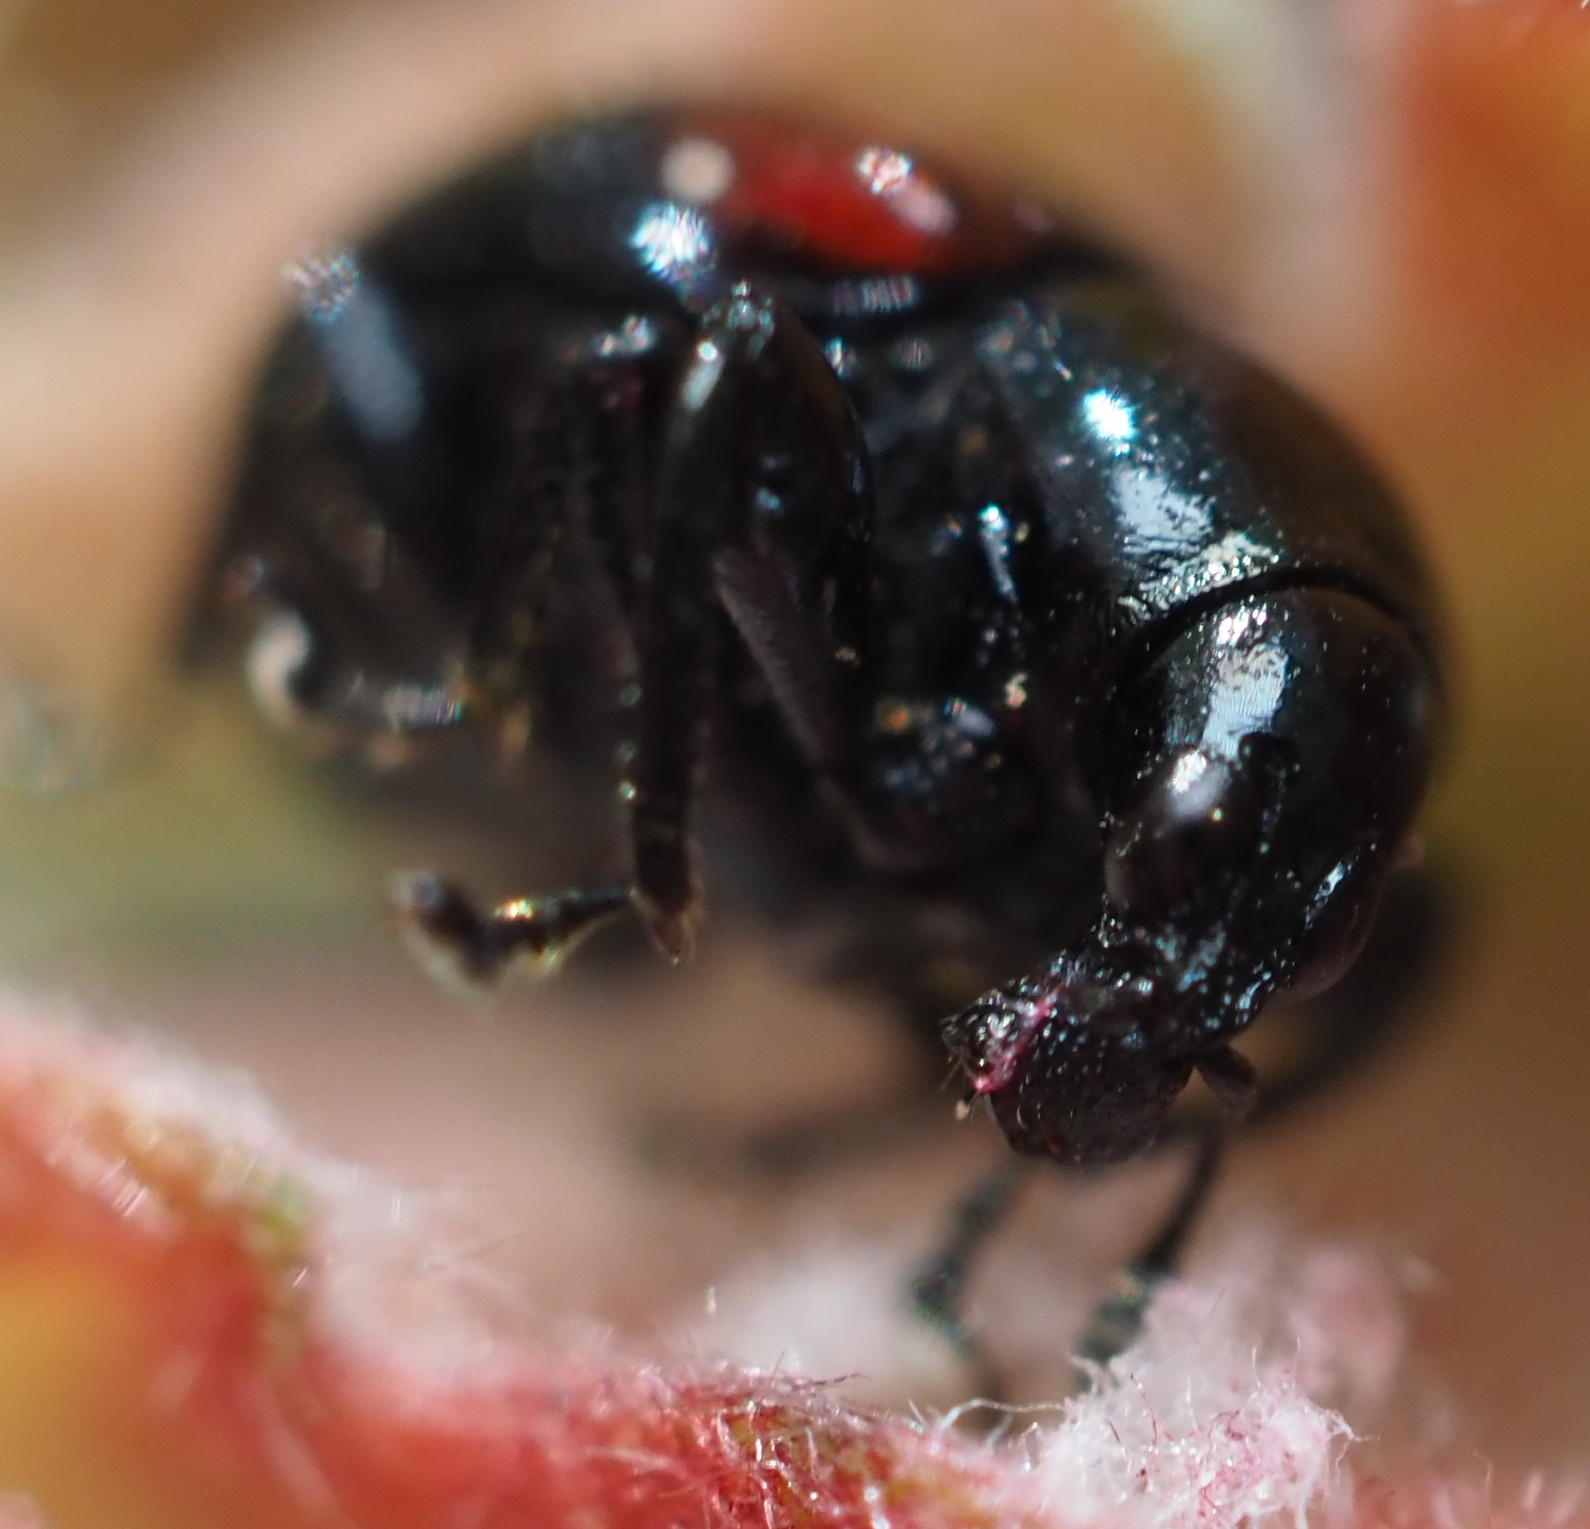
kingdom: Animalia
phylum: Arthropoda
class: Insecta
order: Coleoptera
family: Attelabidae
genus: Attelabus
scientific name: Attelabus bipustulatus
